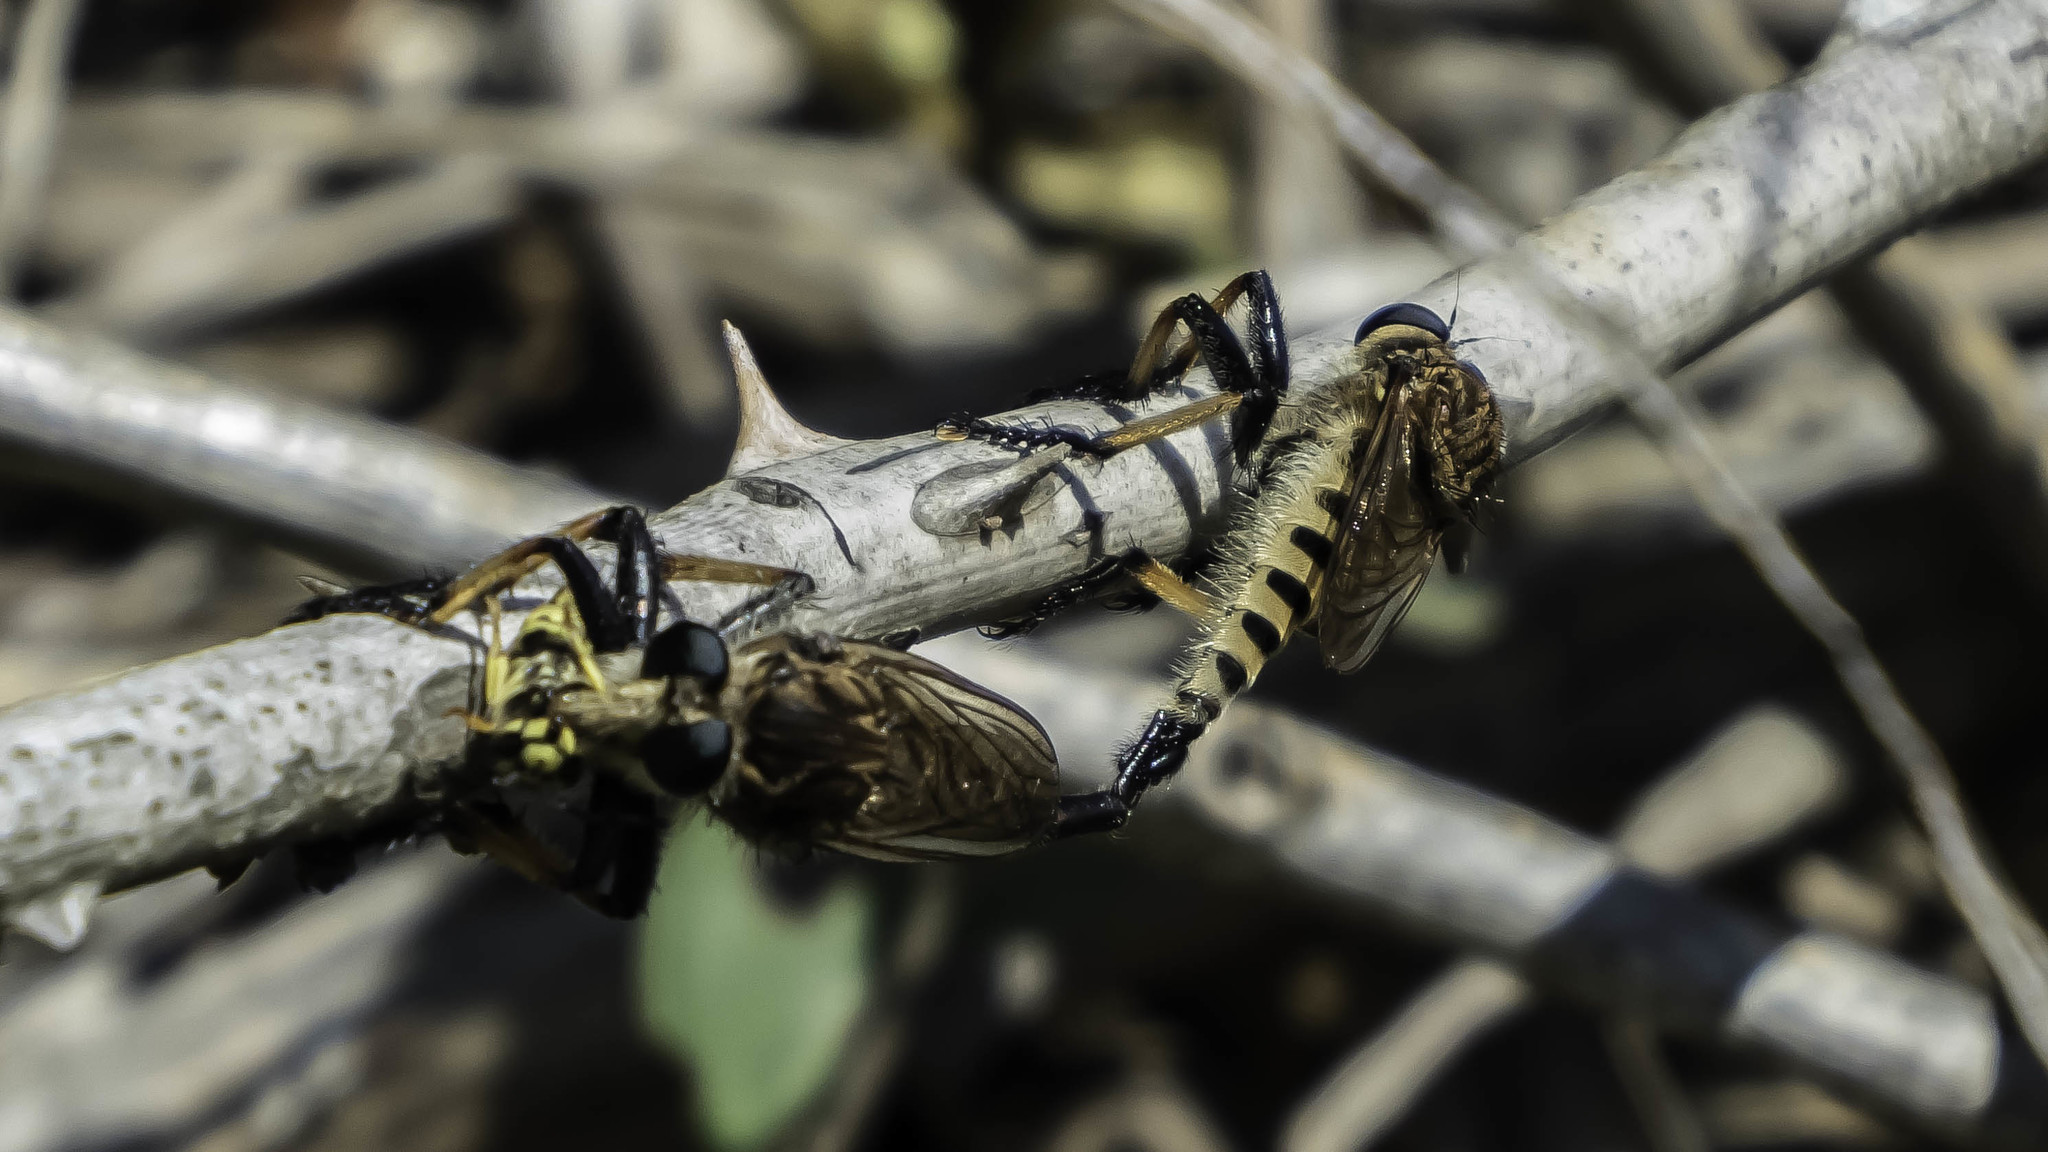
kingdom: Animalia
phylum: Arthropoda
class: Insecta
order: Diptera
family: Asilidae
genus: Promachus
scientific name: Promachus rufipes
